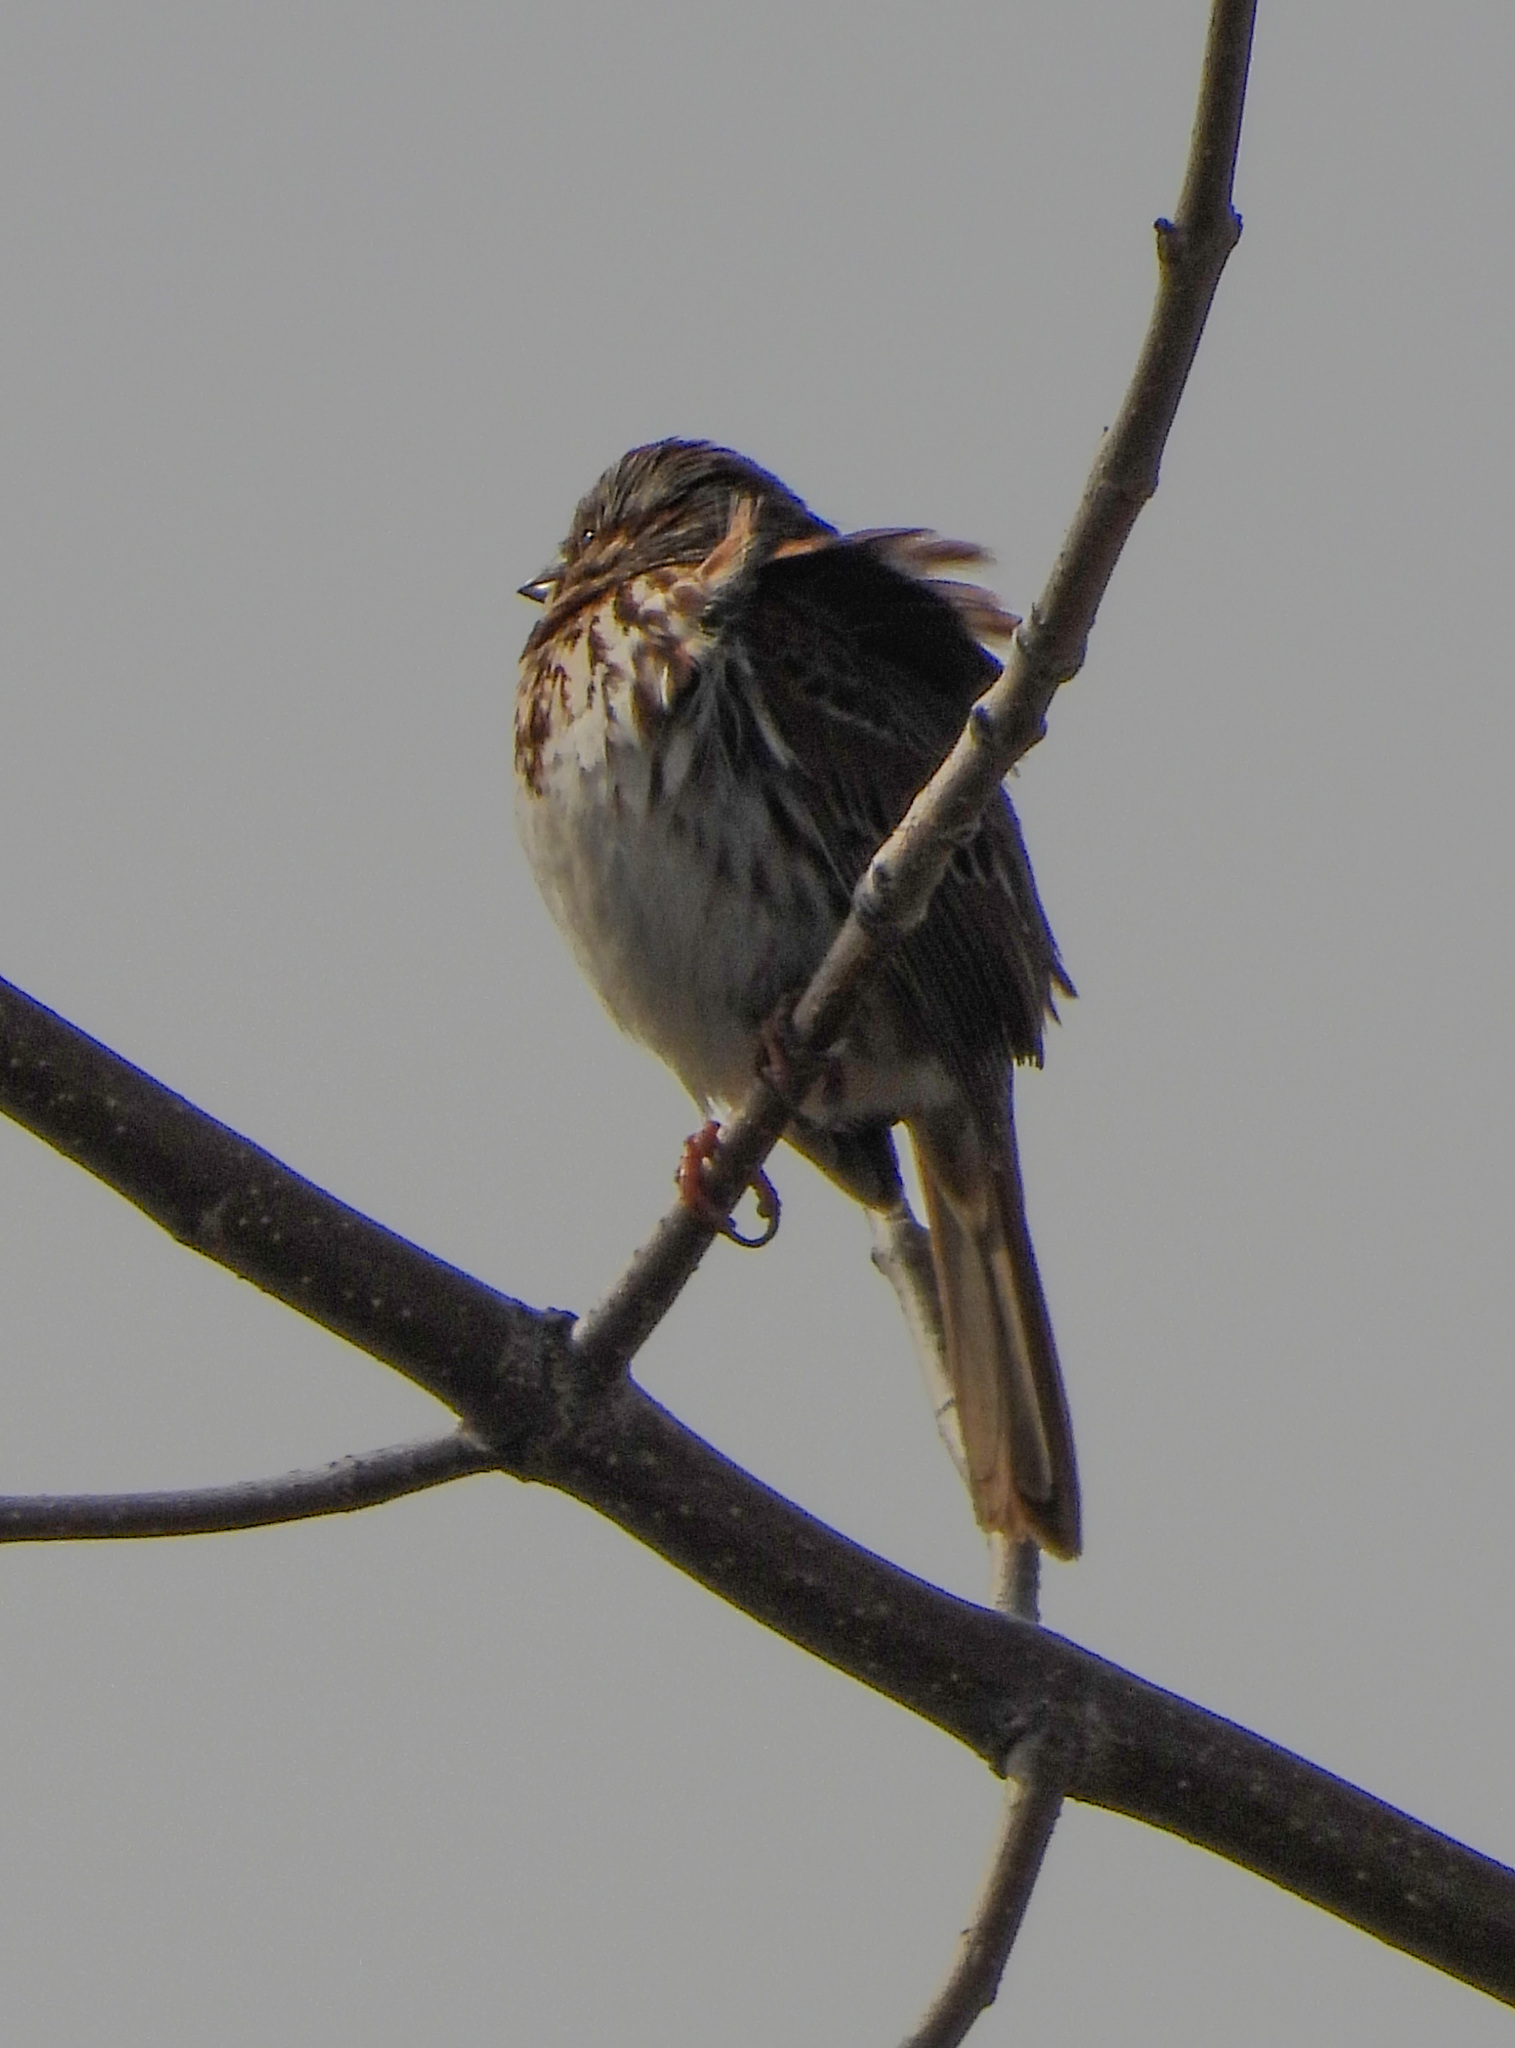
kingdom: Animalia
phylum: Chordata
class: Aves
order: Passeriformes
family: Passerellidae
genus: Melospiza
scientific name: Melospiza melodia
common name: Song sparrow
